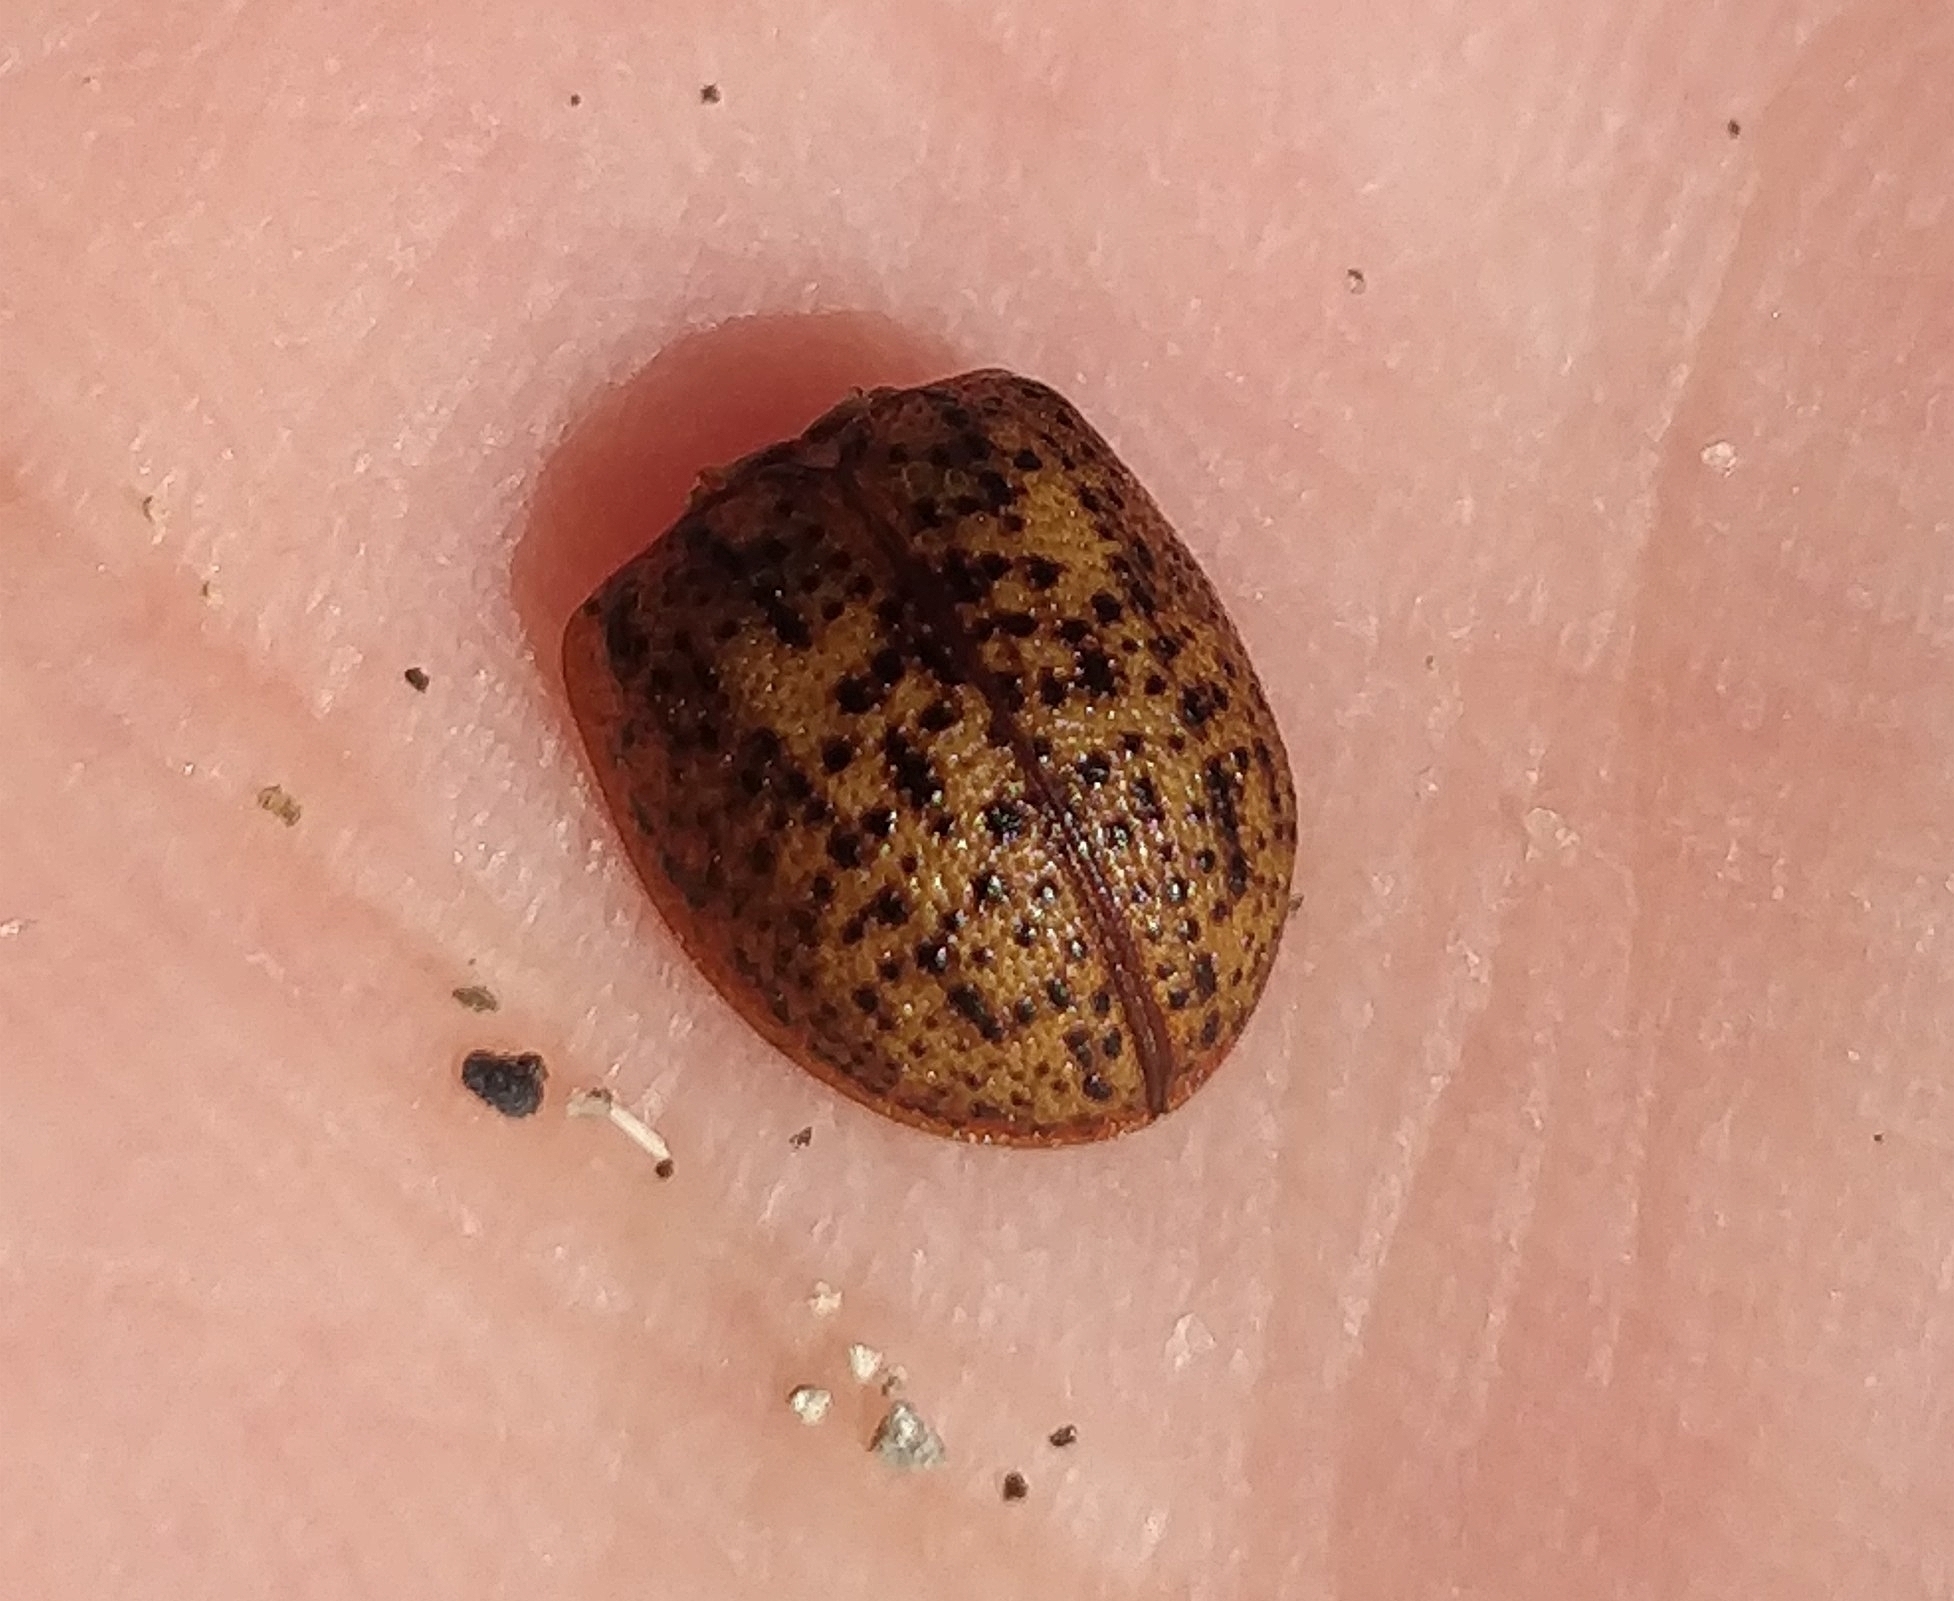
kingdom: Animalia
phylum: Arthropoda
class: Insecta
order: Coleoptera
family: Chrysomelidae
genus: Trachymela
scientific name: Trachymela sloanei
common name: Australian tortoise beetle
